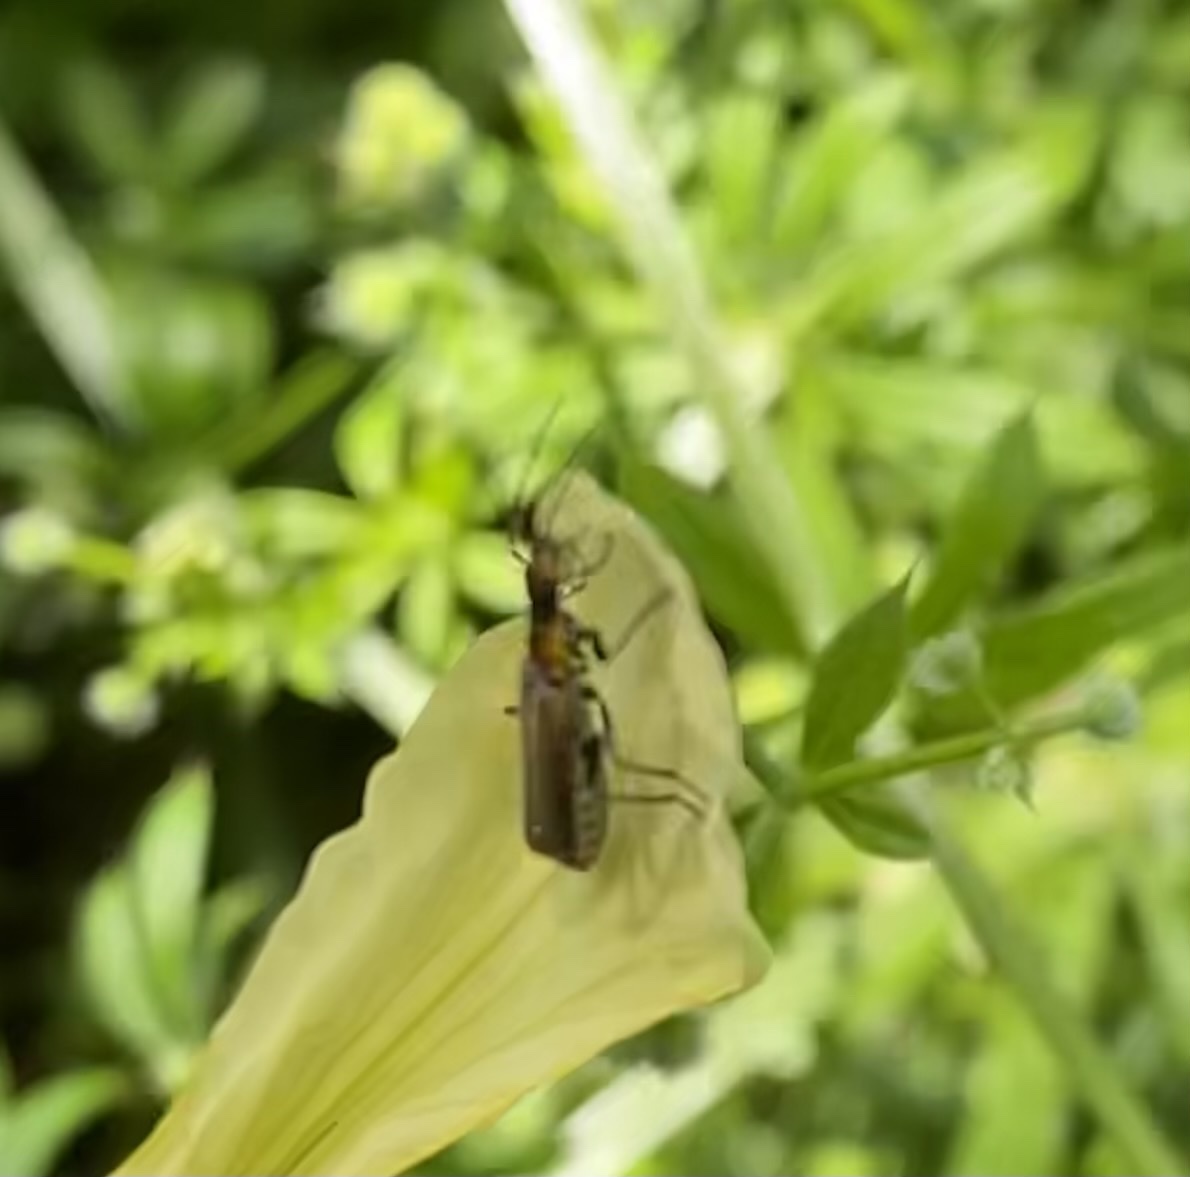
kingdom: Animalia
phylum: Arthropoda
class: Insecta
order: Coleoptera
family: Cantharidae
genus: Dichelotarsus
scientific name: Dichelotarsus cavicollis
